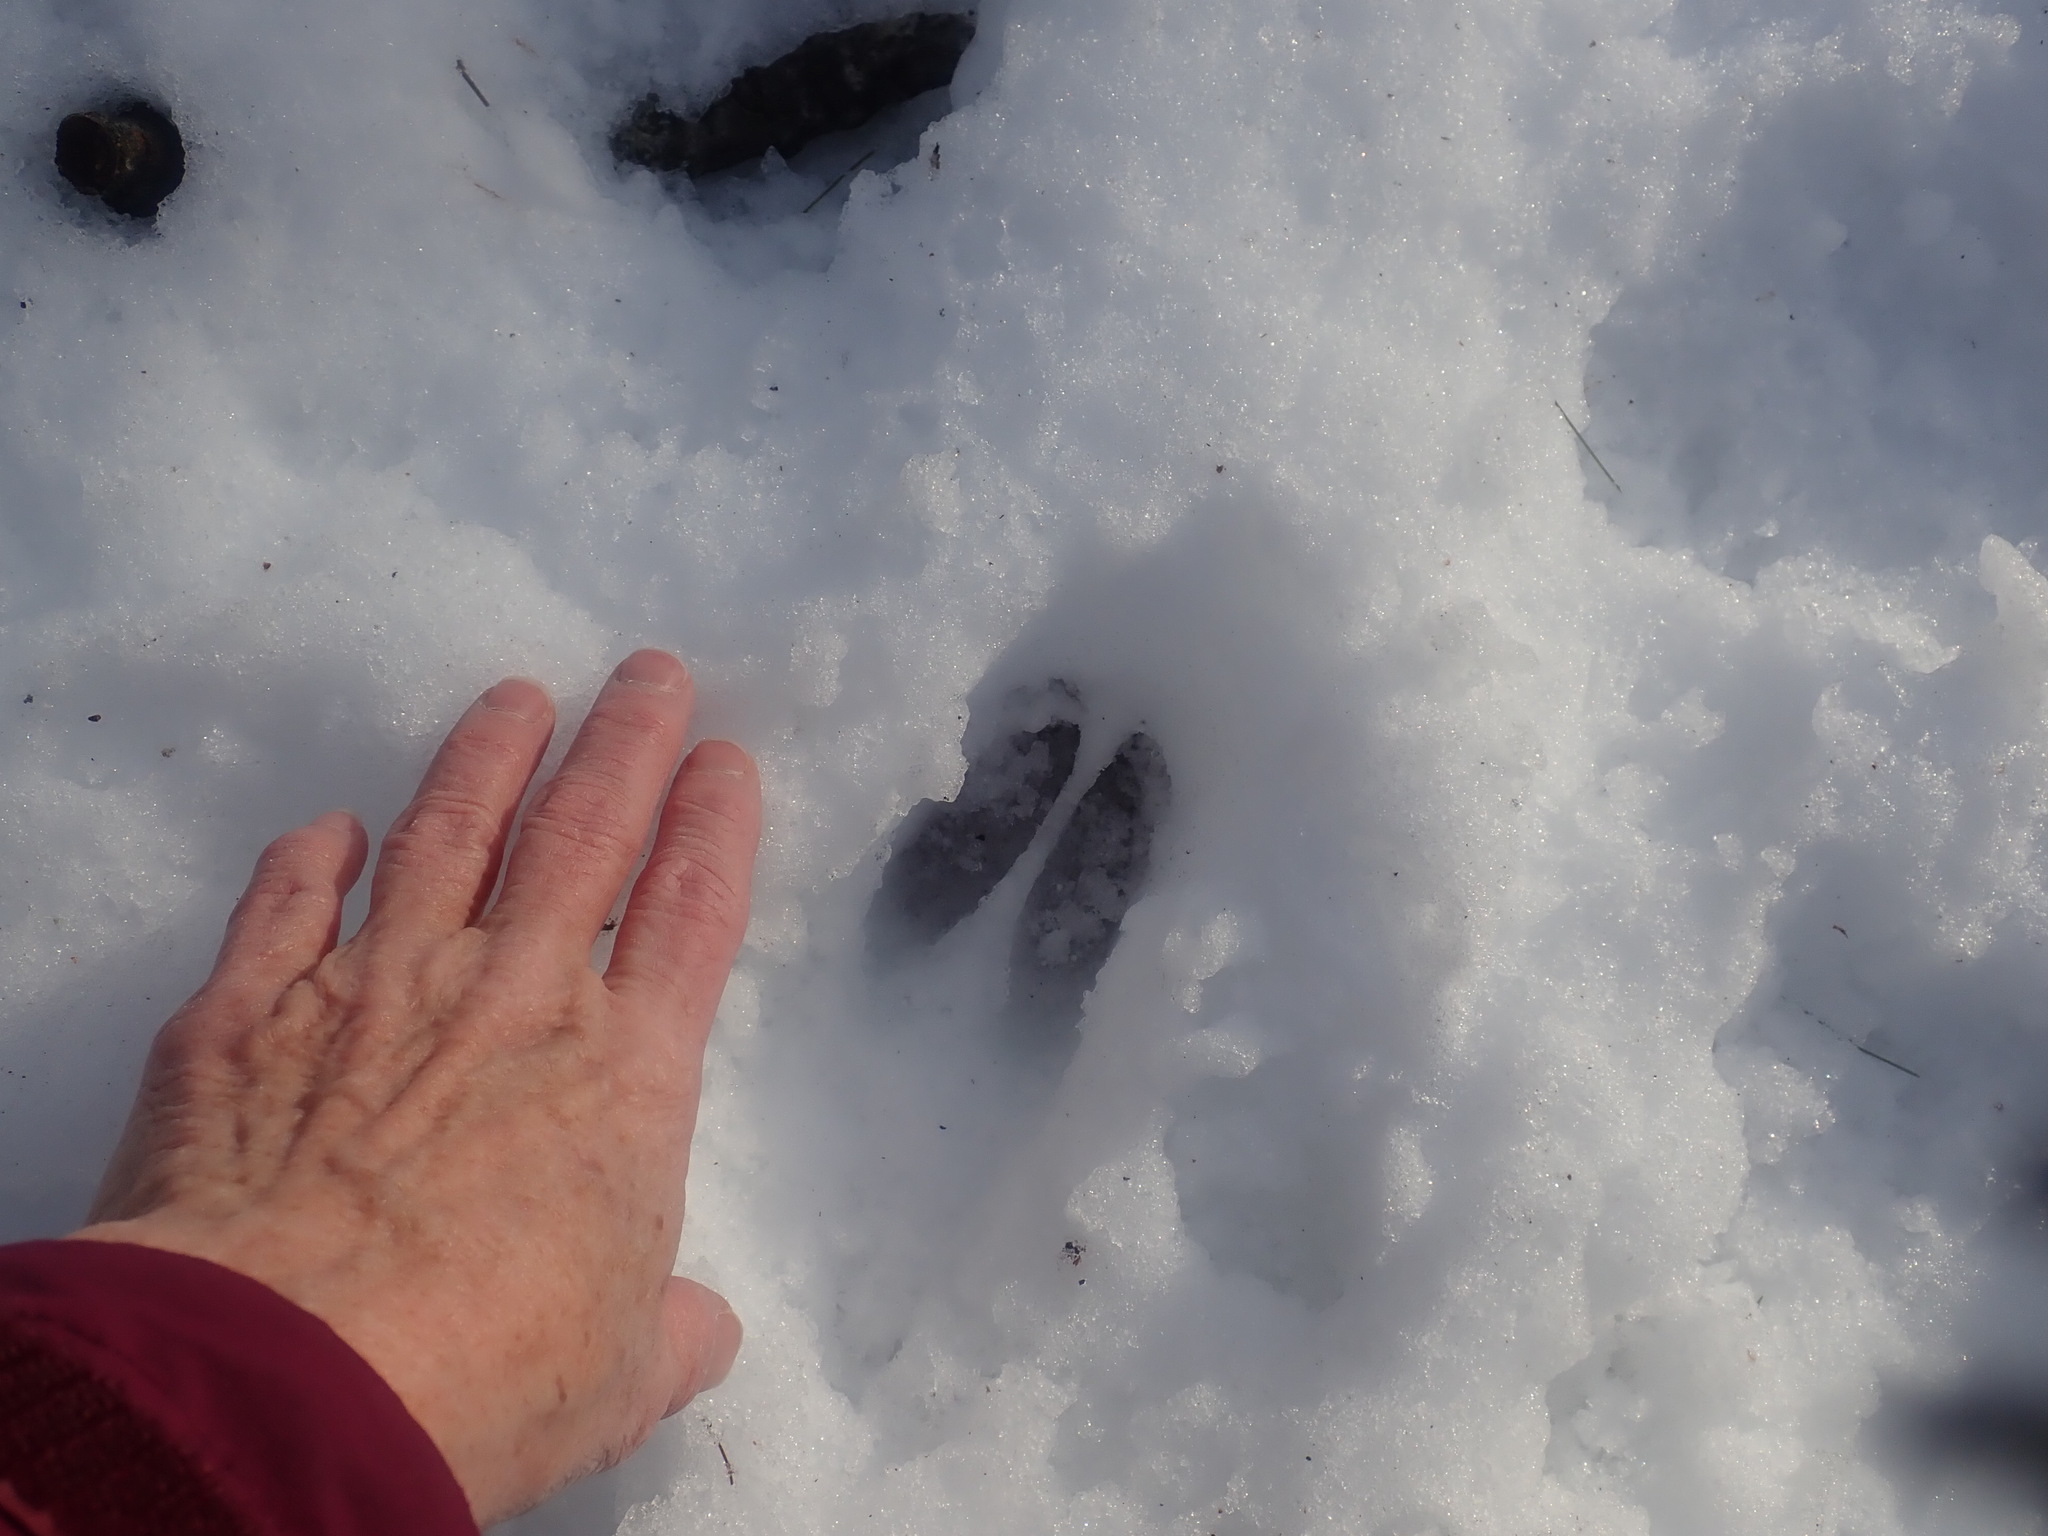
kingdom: Animalia
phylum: Chordata
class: Mammalia
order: Artiodactyla
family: Cervidae
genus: Odocoileus
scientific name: Odocoileus virginianus
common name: White-tailed deer
